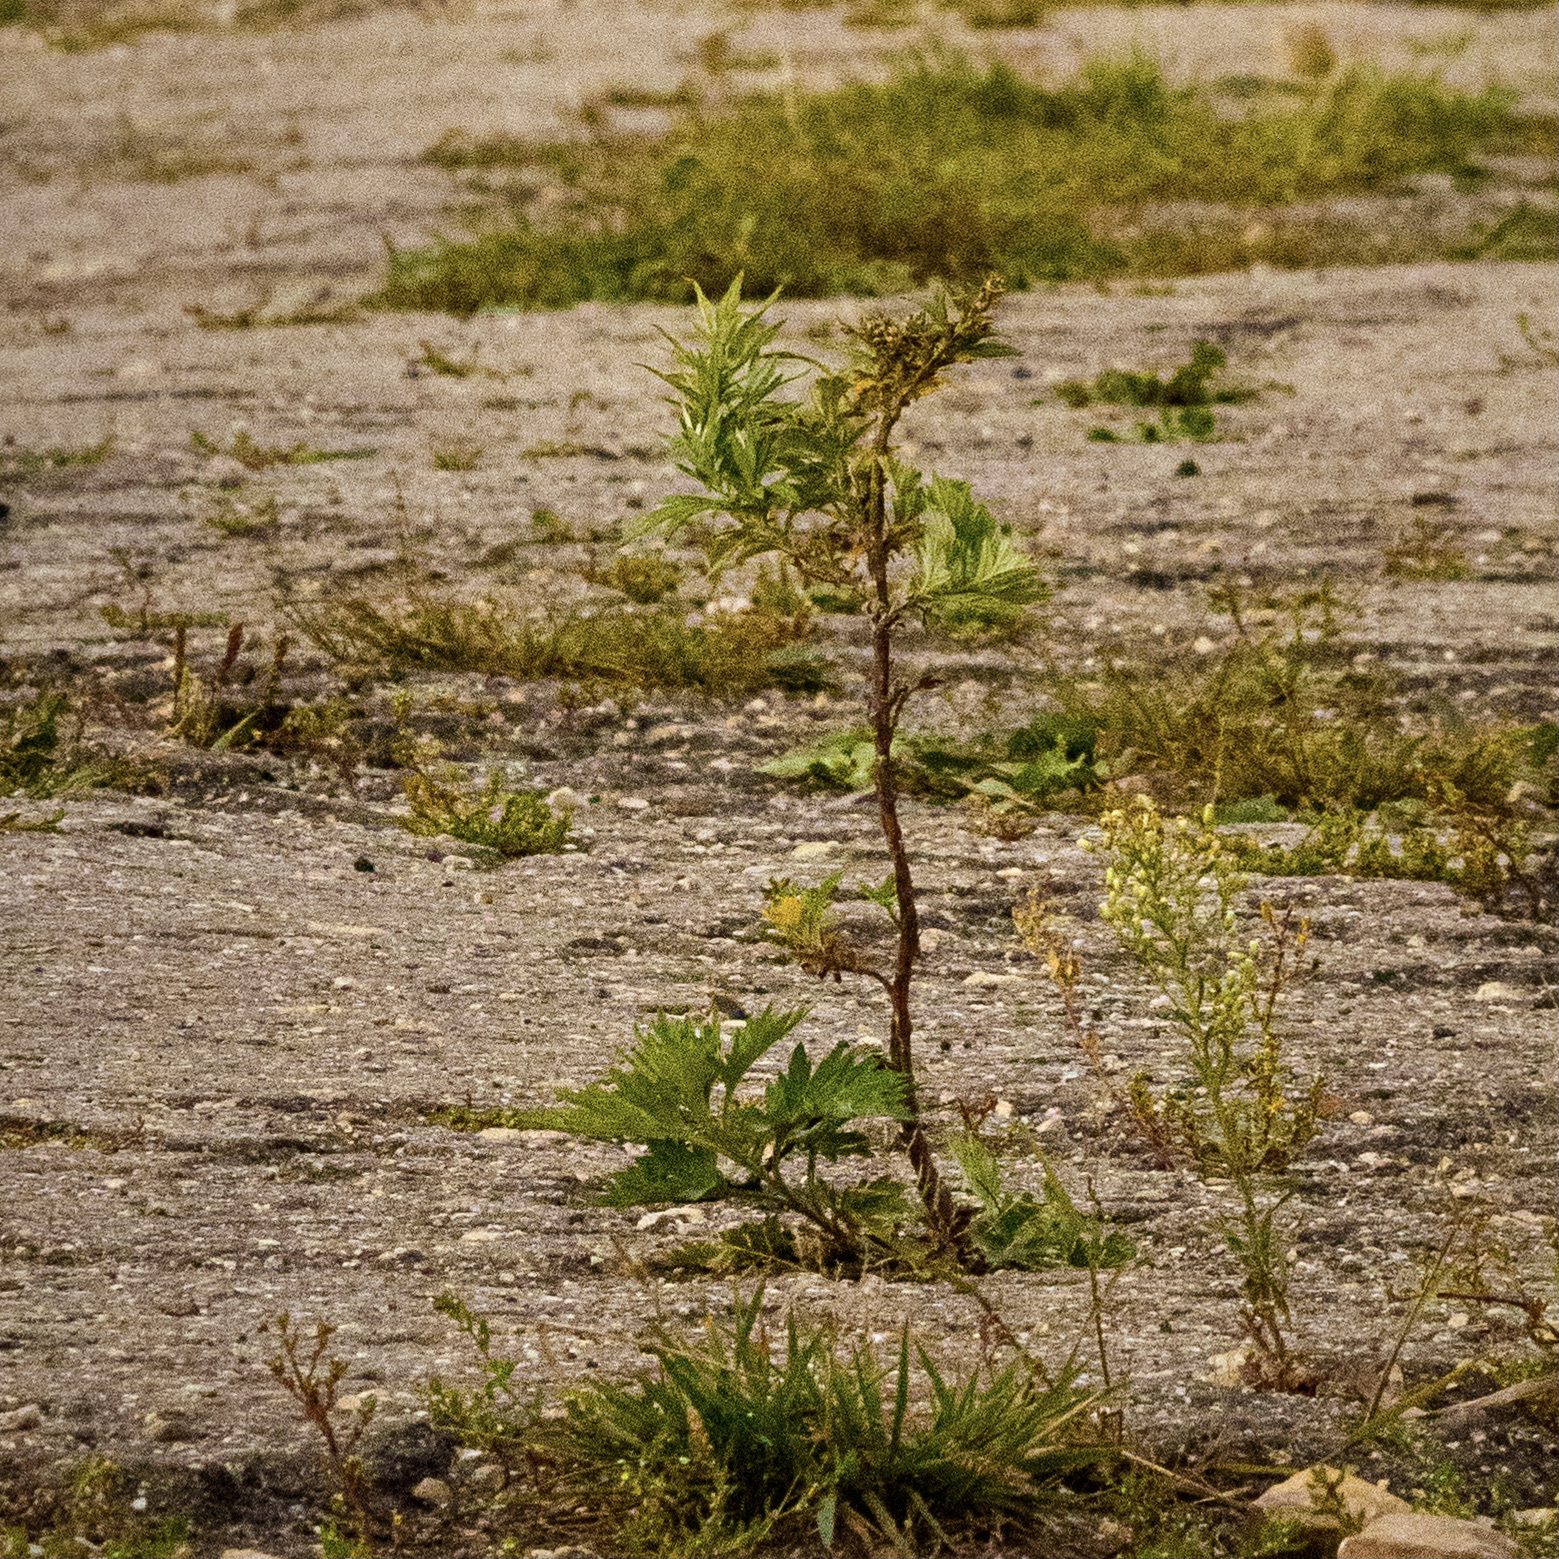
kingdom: Plantae
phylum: Tracheophyta
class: Magnoliopsida
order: Asterales
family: Asteraceae
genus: Artemisia
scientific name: Artemisia vulgaris
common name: Mugwort
